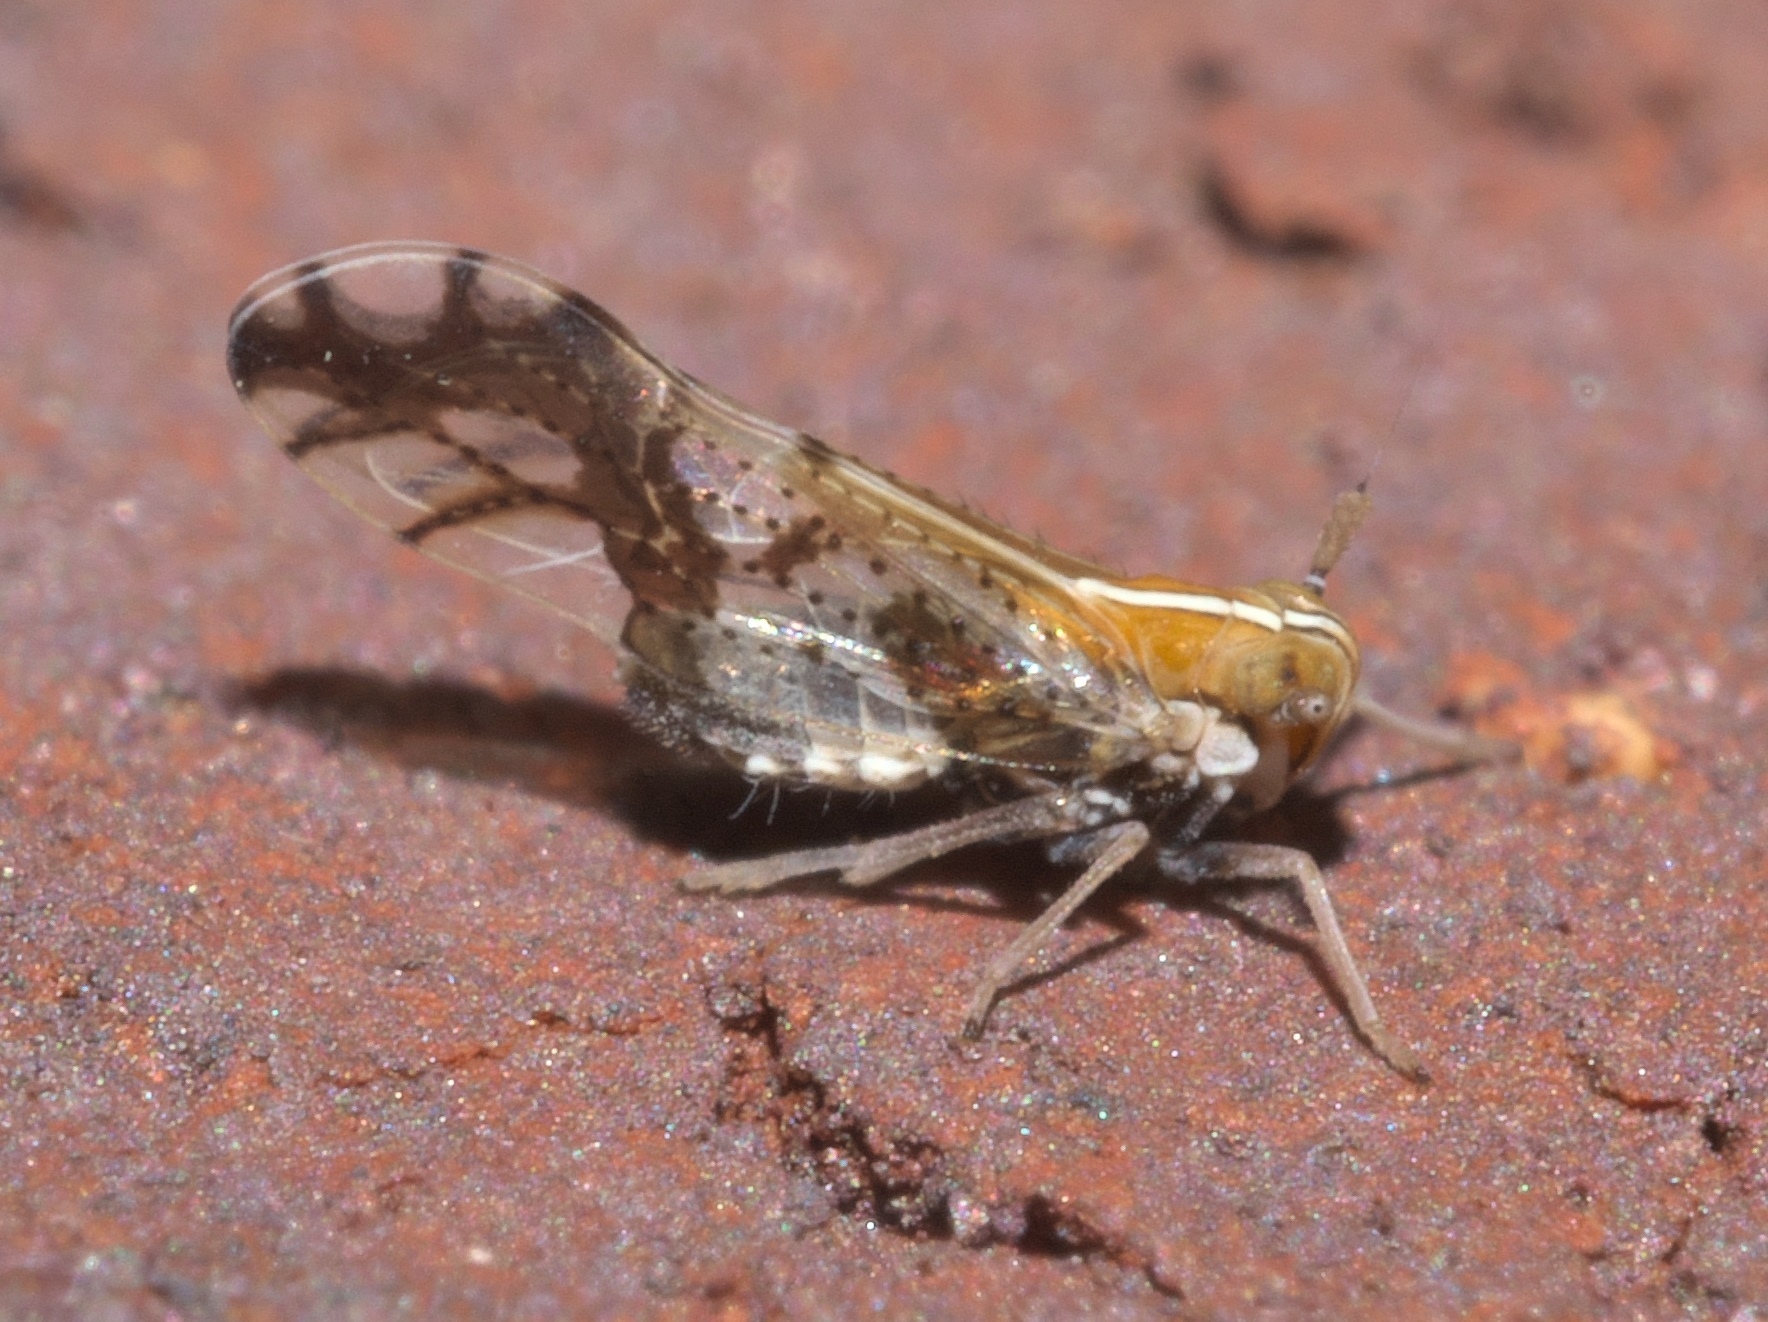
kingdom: Animalia
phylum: Arthropoda
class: Insecta
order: Hemiptera
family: Delphacidae
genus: Liburniella
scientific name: Liburniella ornata
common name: Ornate planthopper
